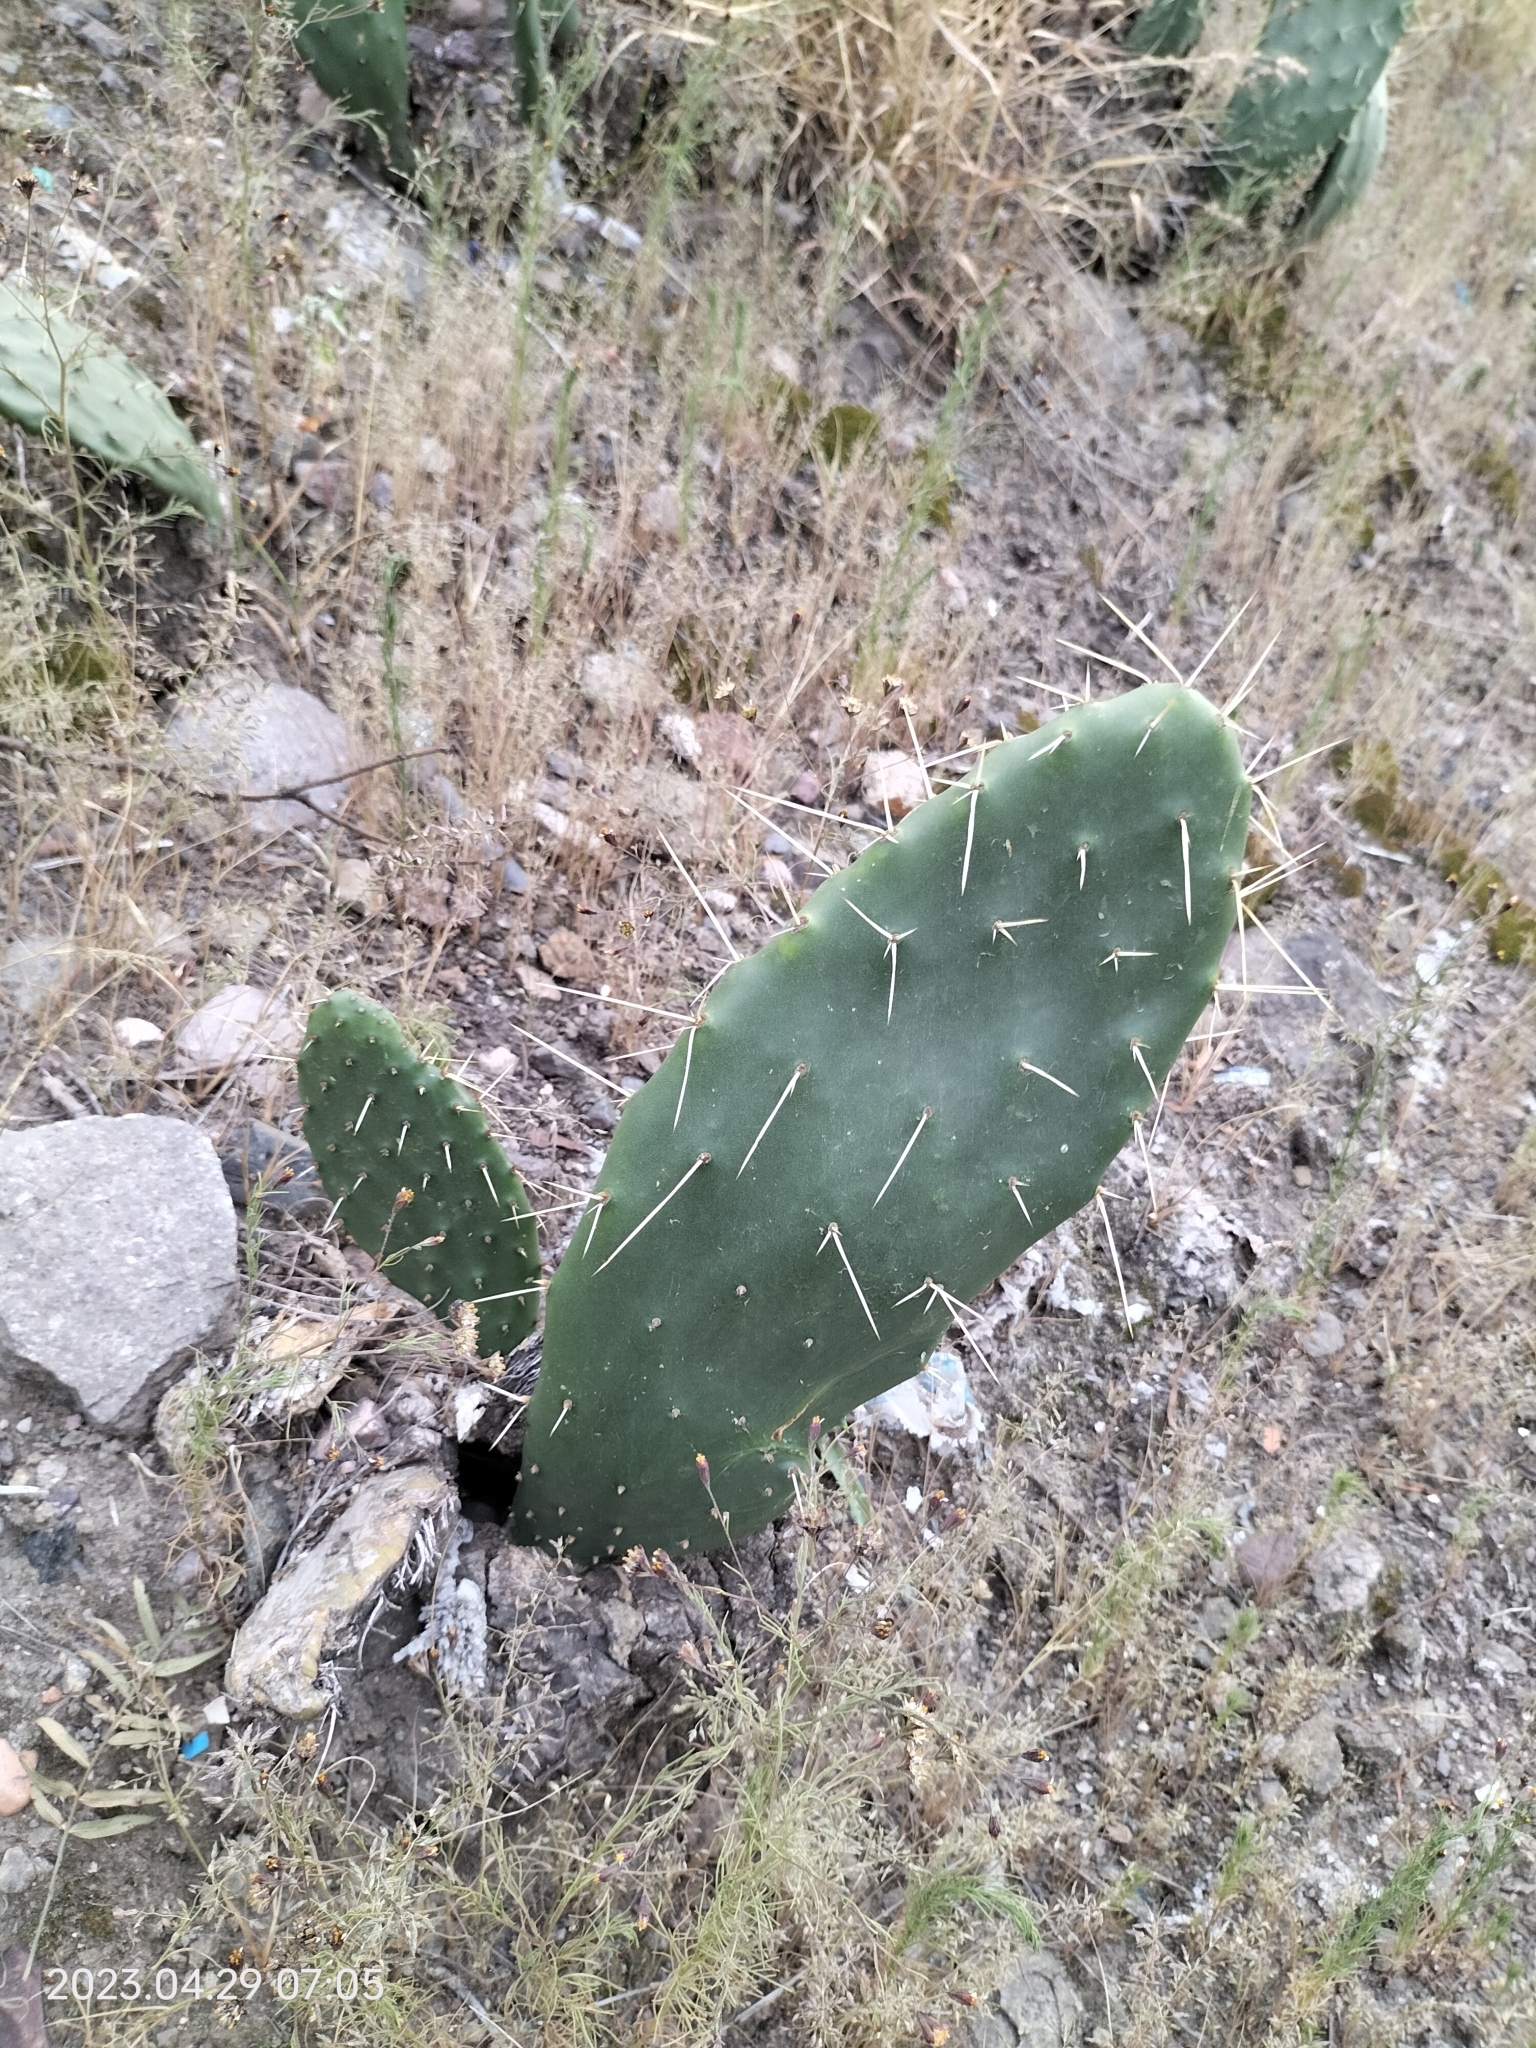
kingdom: Plantae
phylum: Tracheophyta
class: Magnoliopsida
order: Caryophyllales
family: Cactaceae
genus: Opuntia
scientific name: Opuntia ficus-indica
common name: Barbary fig
